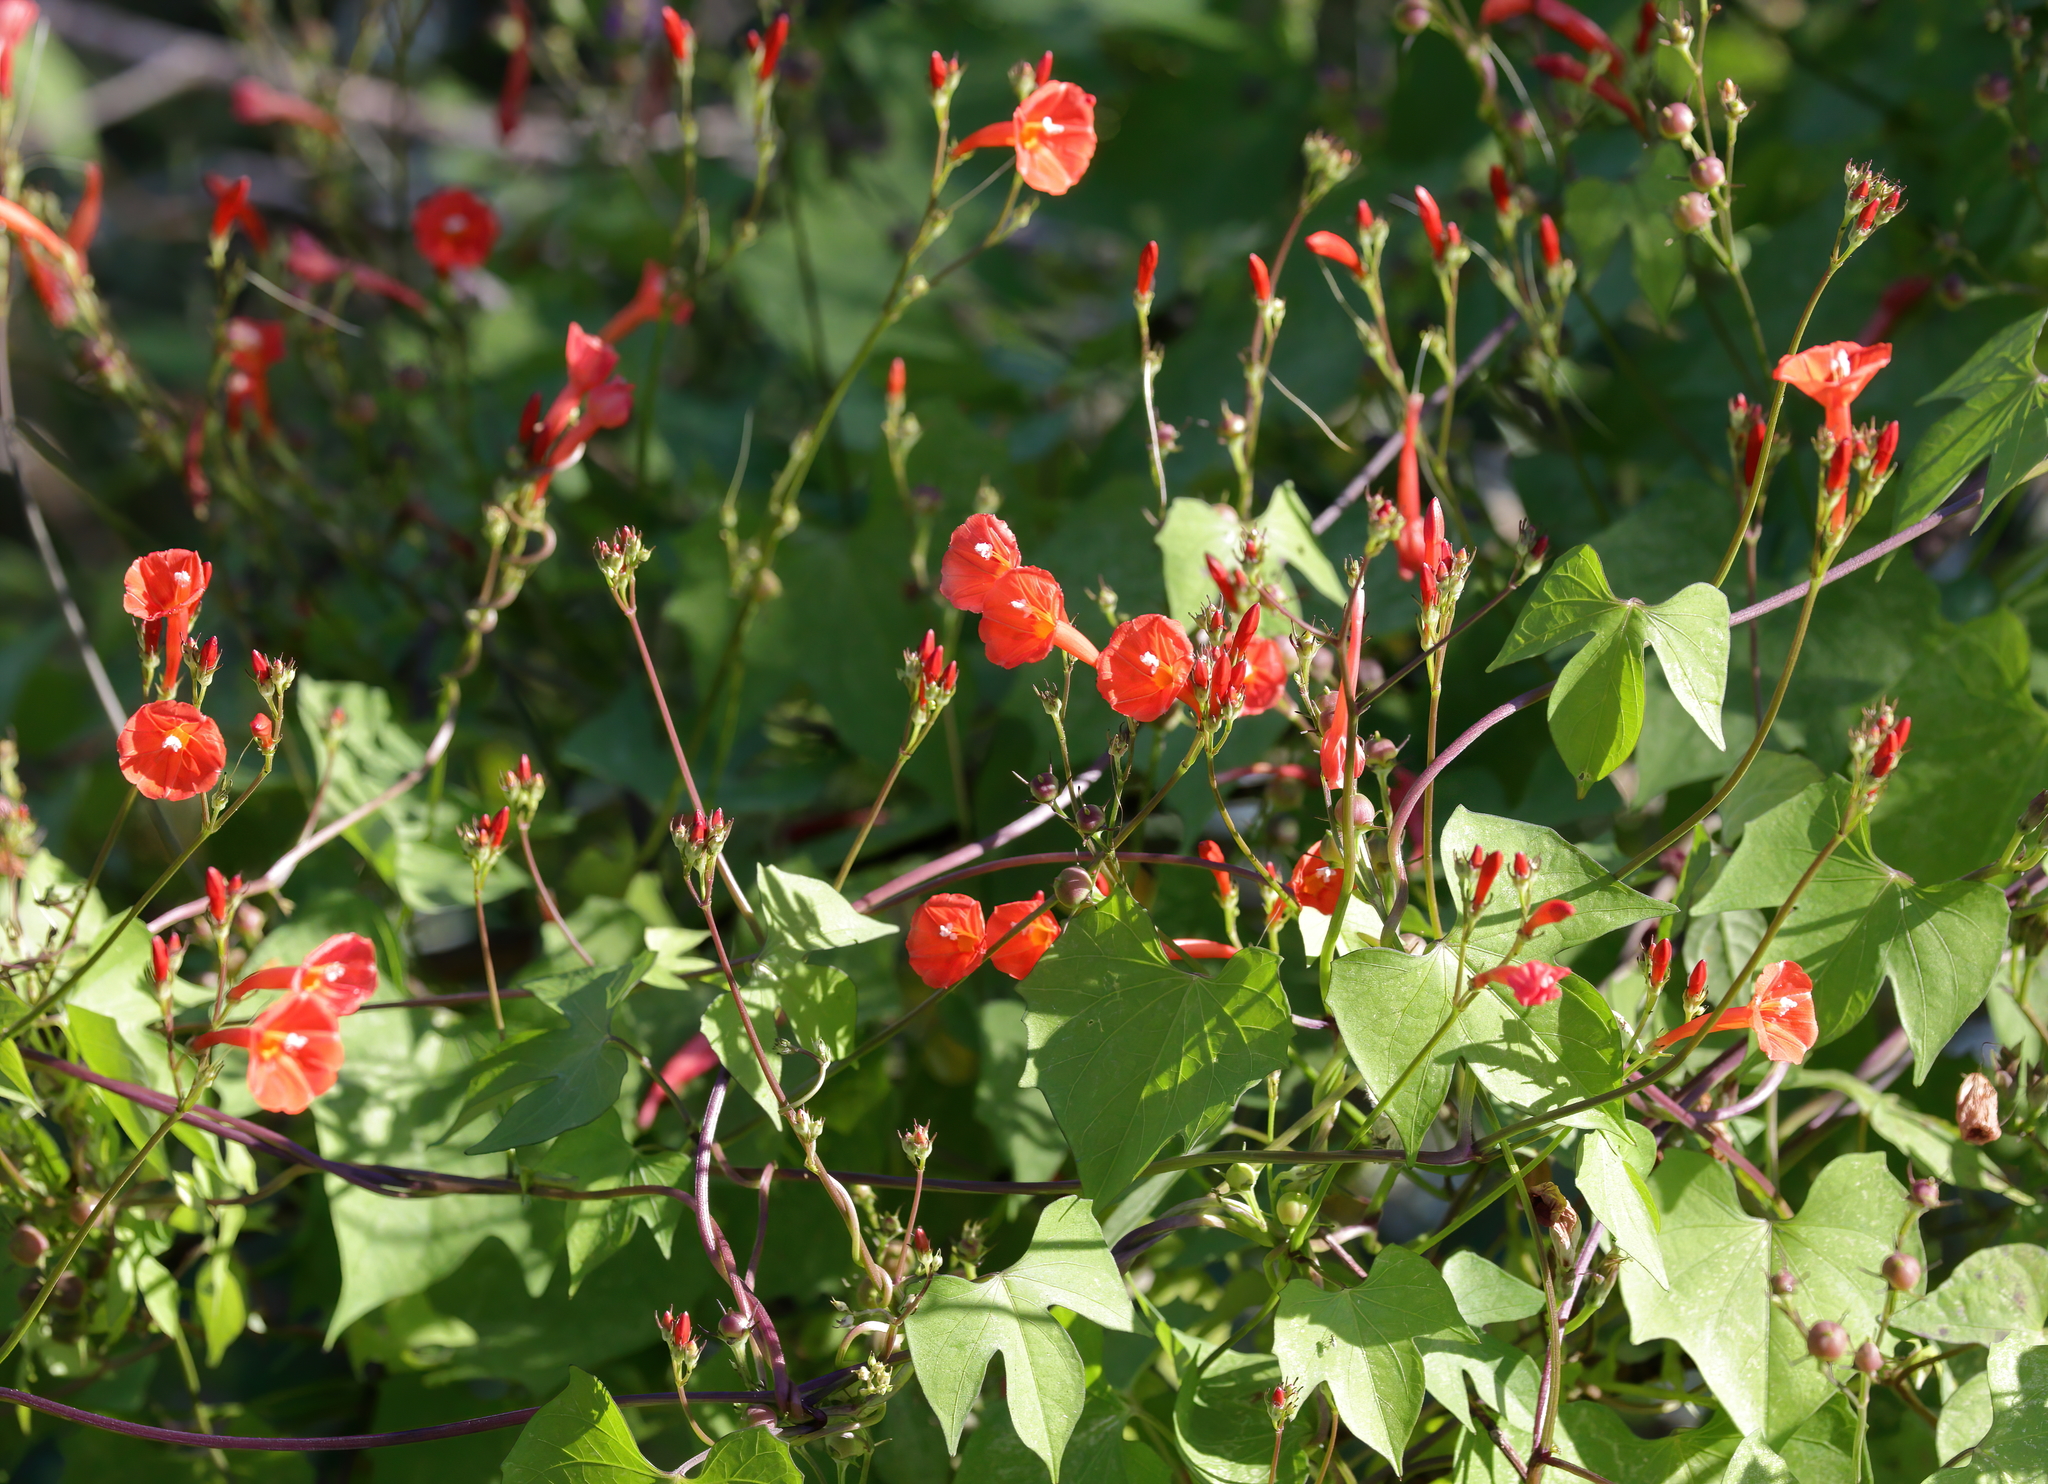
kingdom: Plantae
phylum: Tracheophyta
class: Magnoliopsida
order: Solanales
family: Convolvulaceae
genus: Ipomoea
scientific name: Ipomoea hederifolia
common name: Ivy-leaf morning-glory
